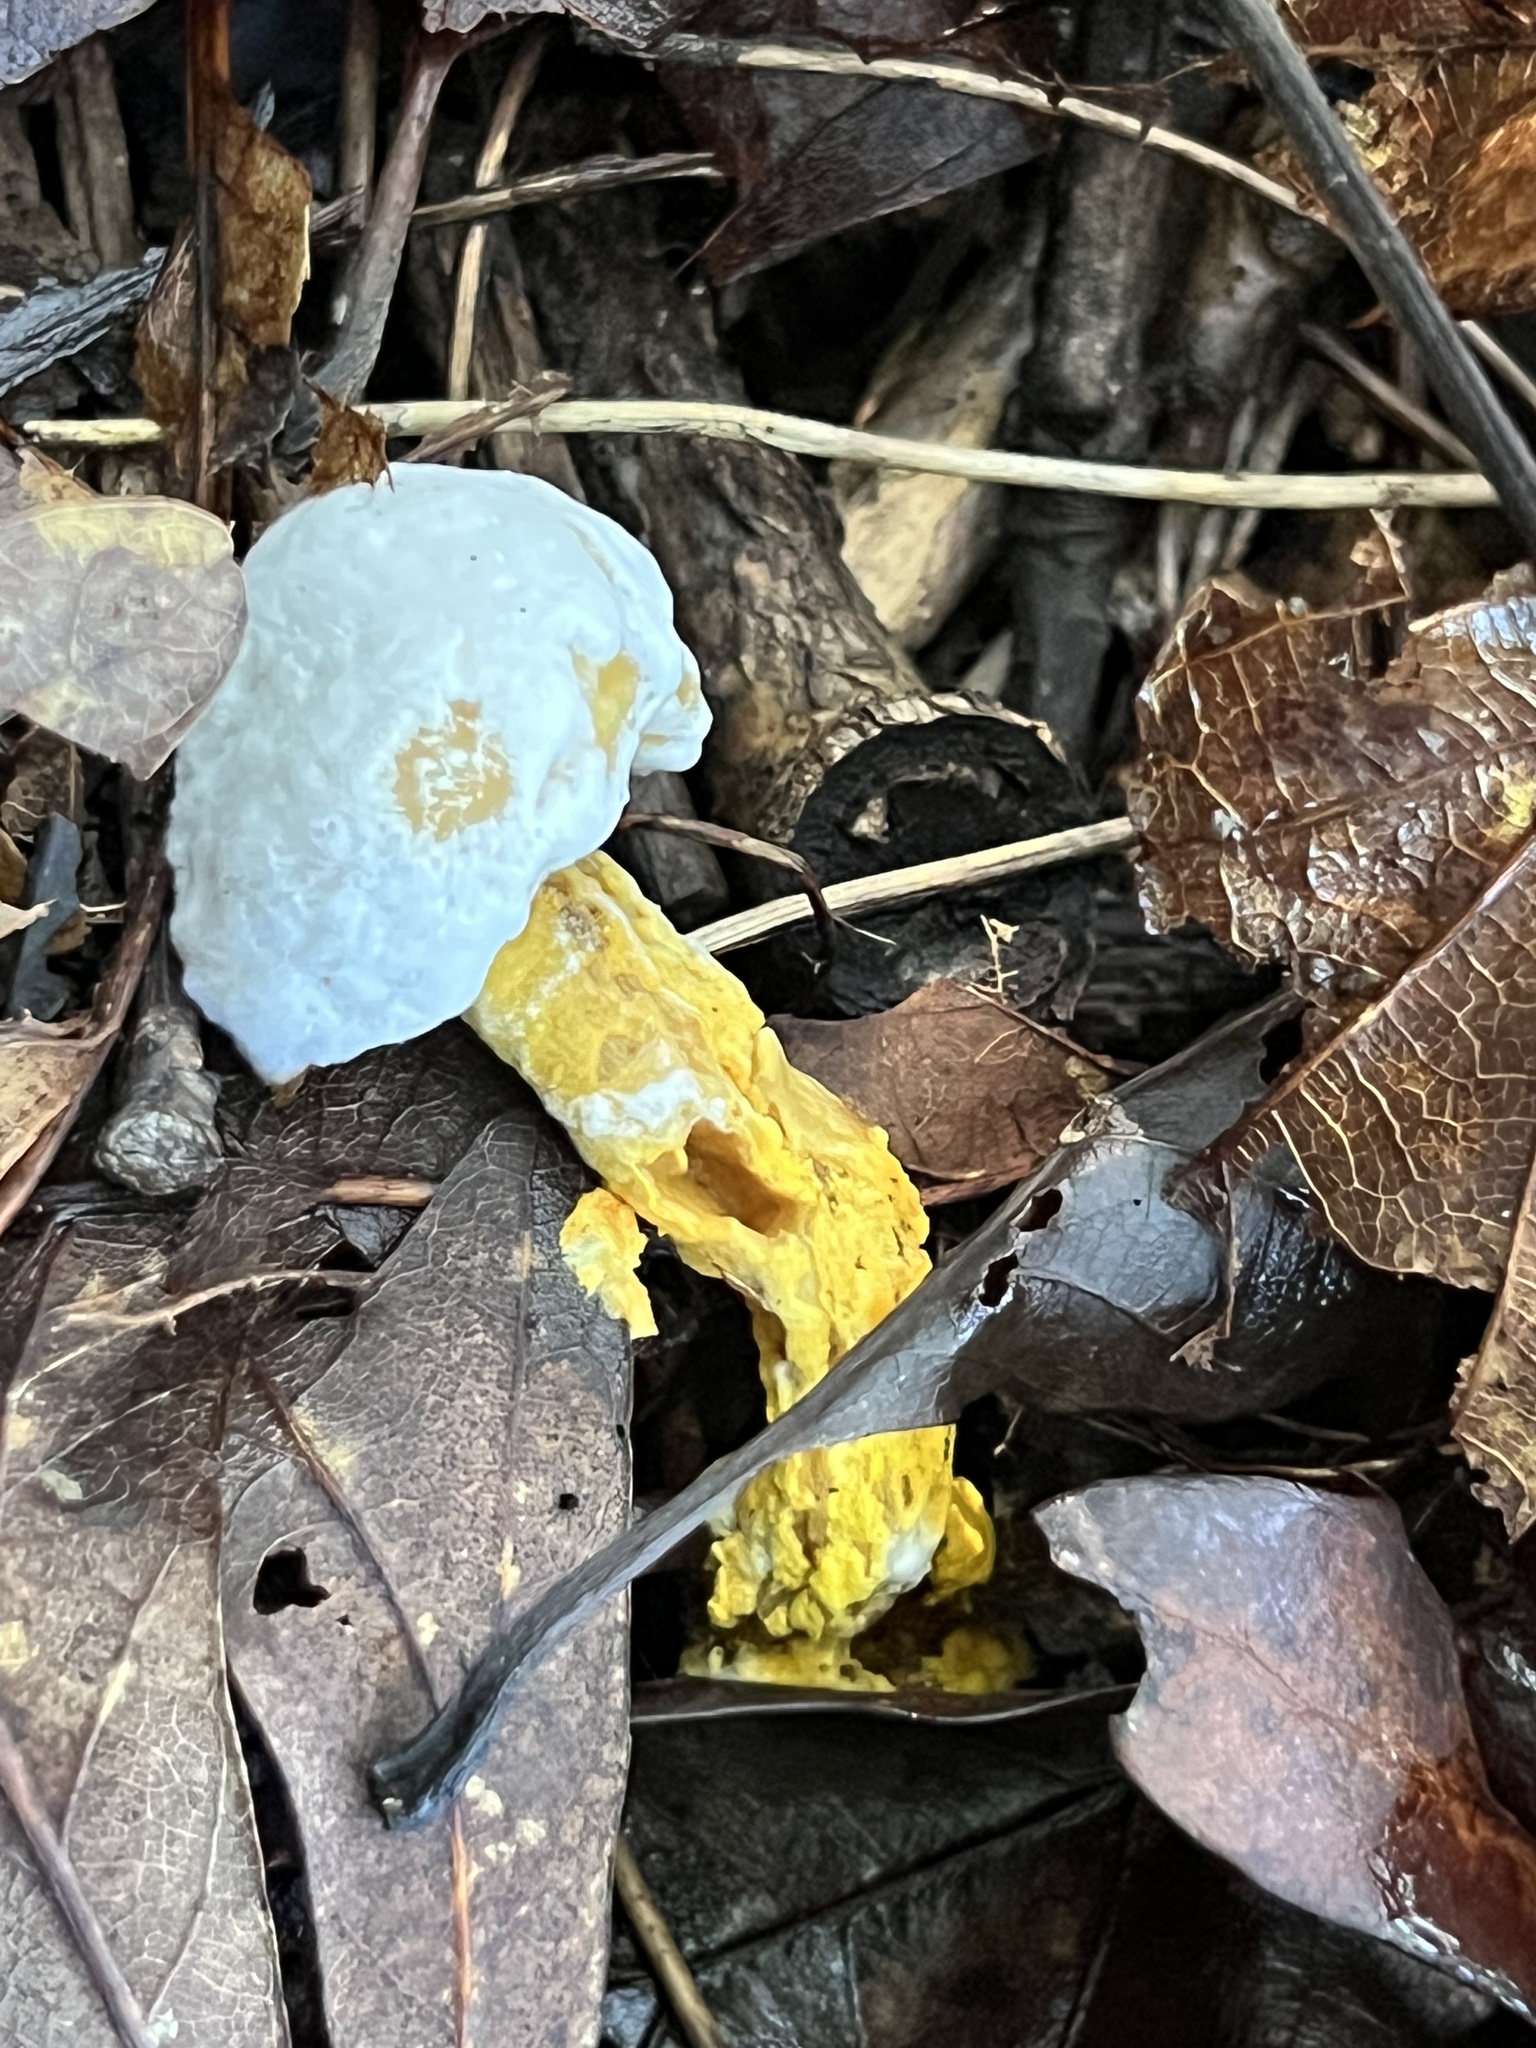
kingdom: Fungi
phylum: Ascomycota
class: Sordariomycetes
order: Hypocreales
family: Hypocreaceae
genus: Hypomyces
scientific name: Hypomyces chrysospermus
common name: Bolete mould
